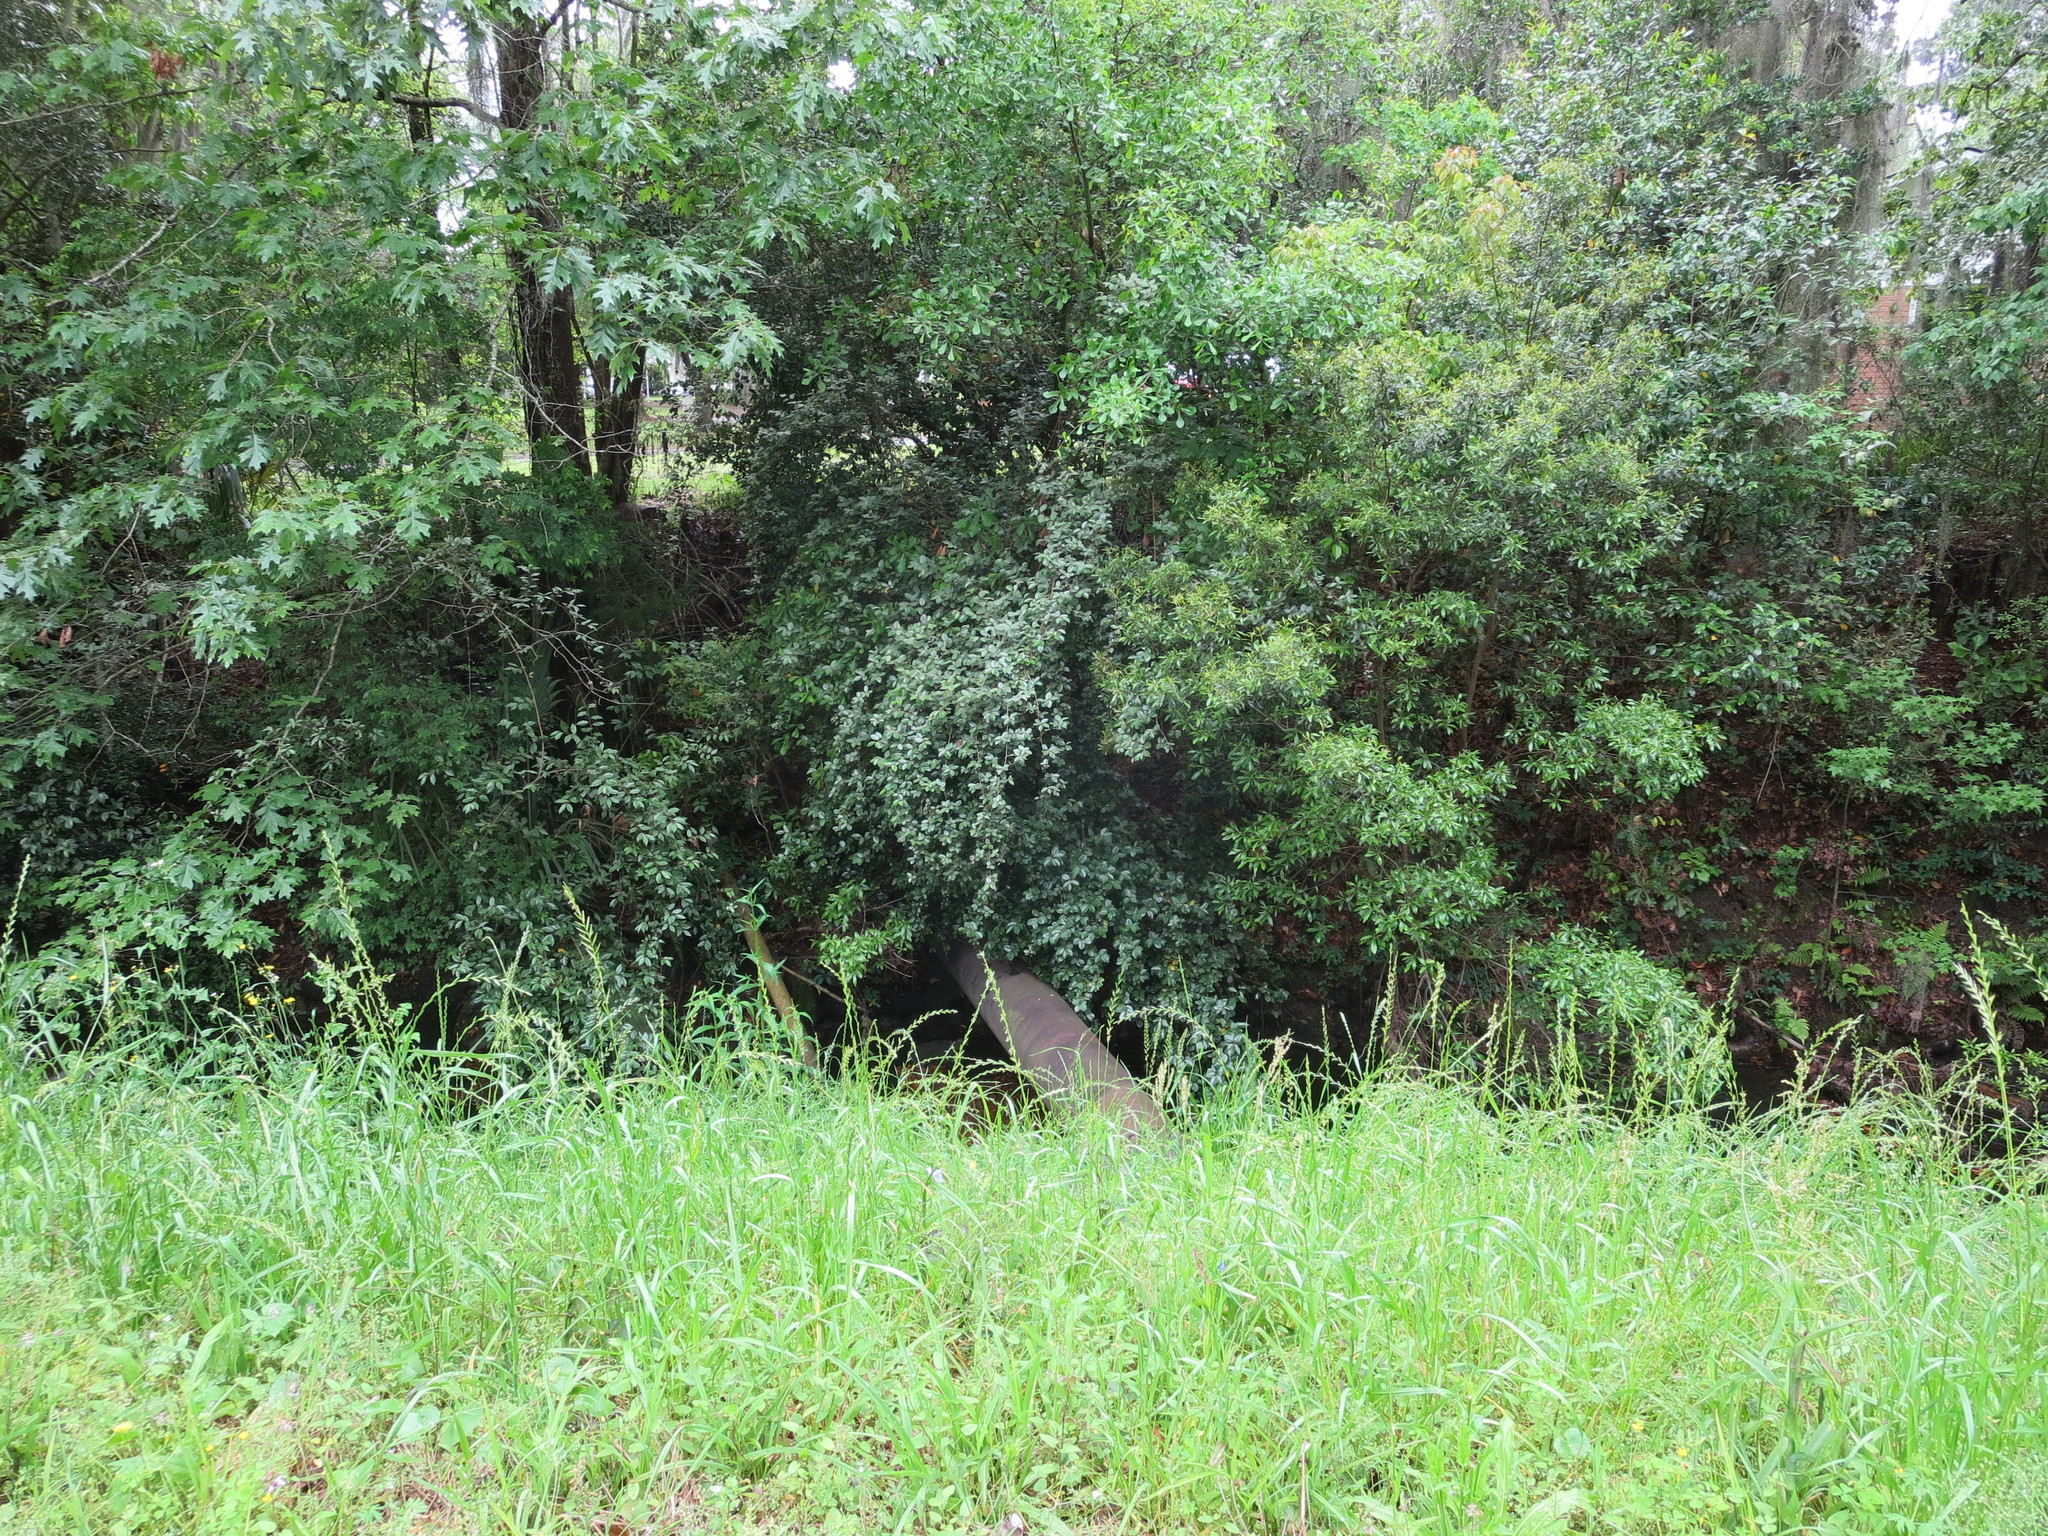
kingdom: Plantae
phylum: Tracheophyta
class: Magnoliopsida
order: Rosales
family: Elaeagnaceae
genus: Elaeagnus
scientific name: Elaeagnus pungens
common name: Spiny oleaster
